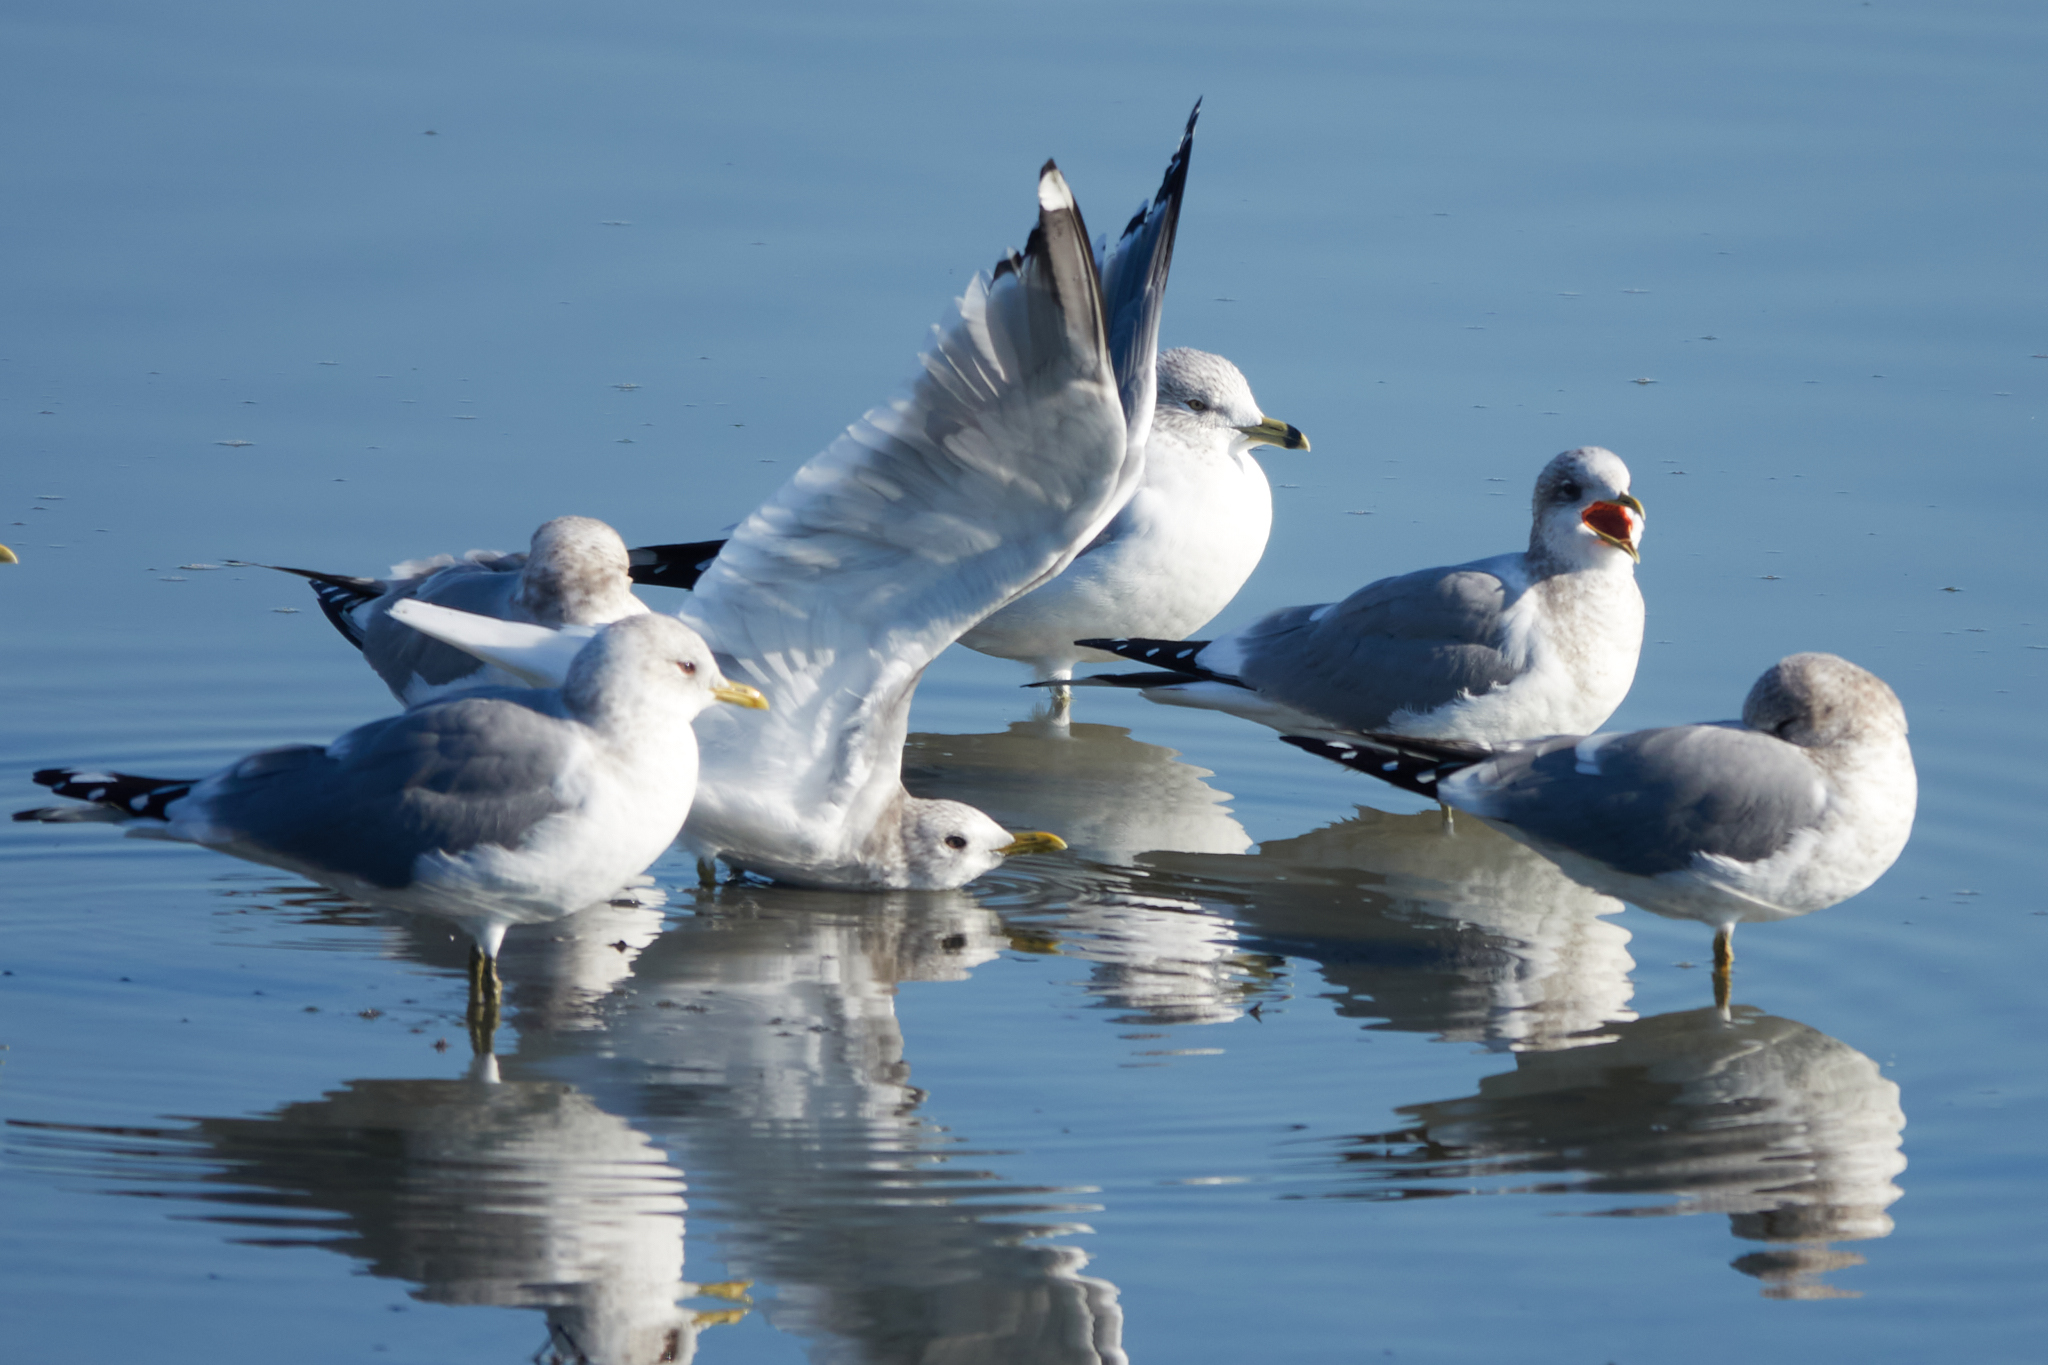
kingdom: Animalia
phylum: Chordata
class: Aves
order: Charadriiformes
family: Laridae
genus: Larus
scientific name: Larus brachyrhynchus
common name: Short-billed gull
